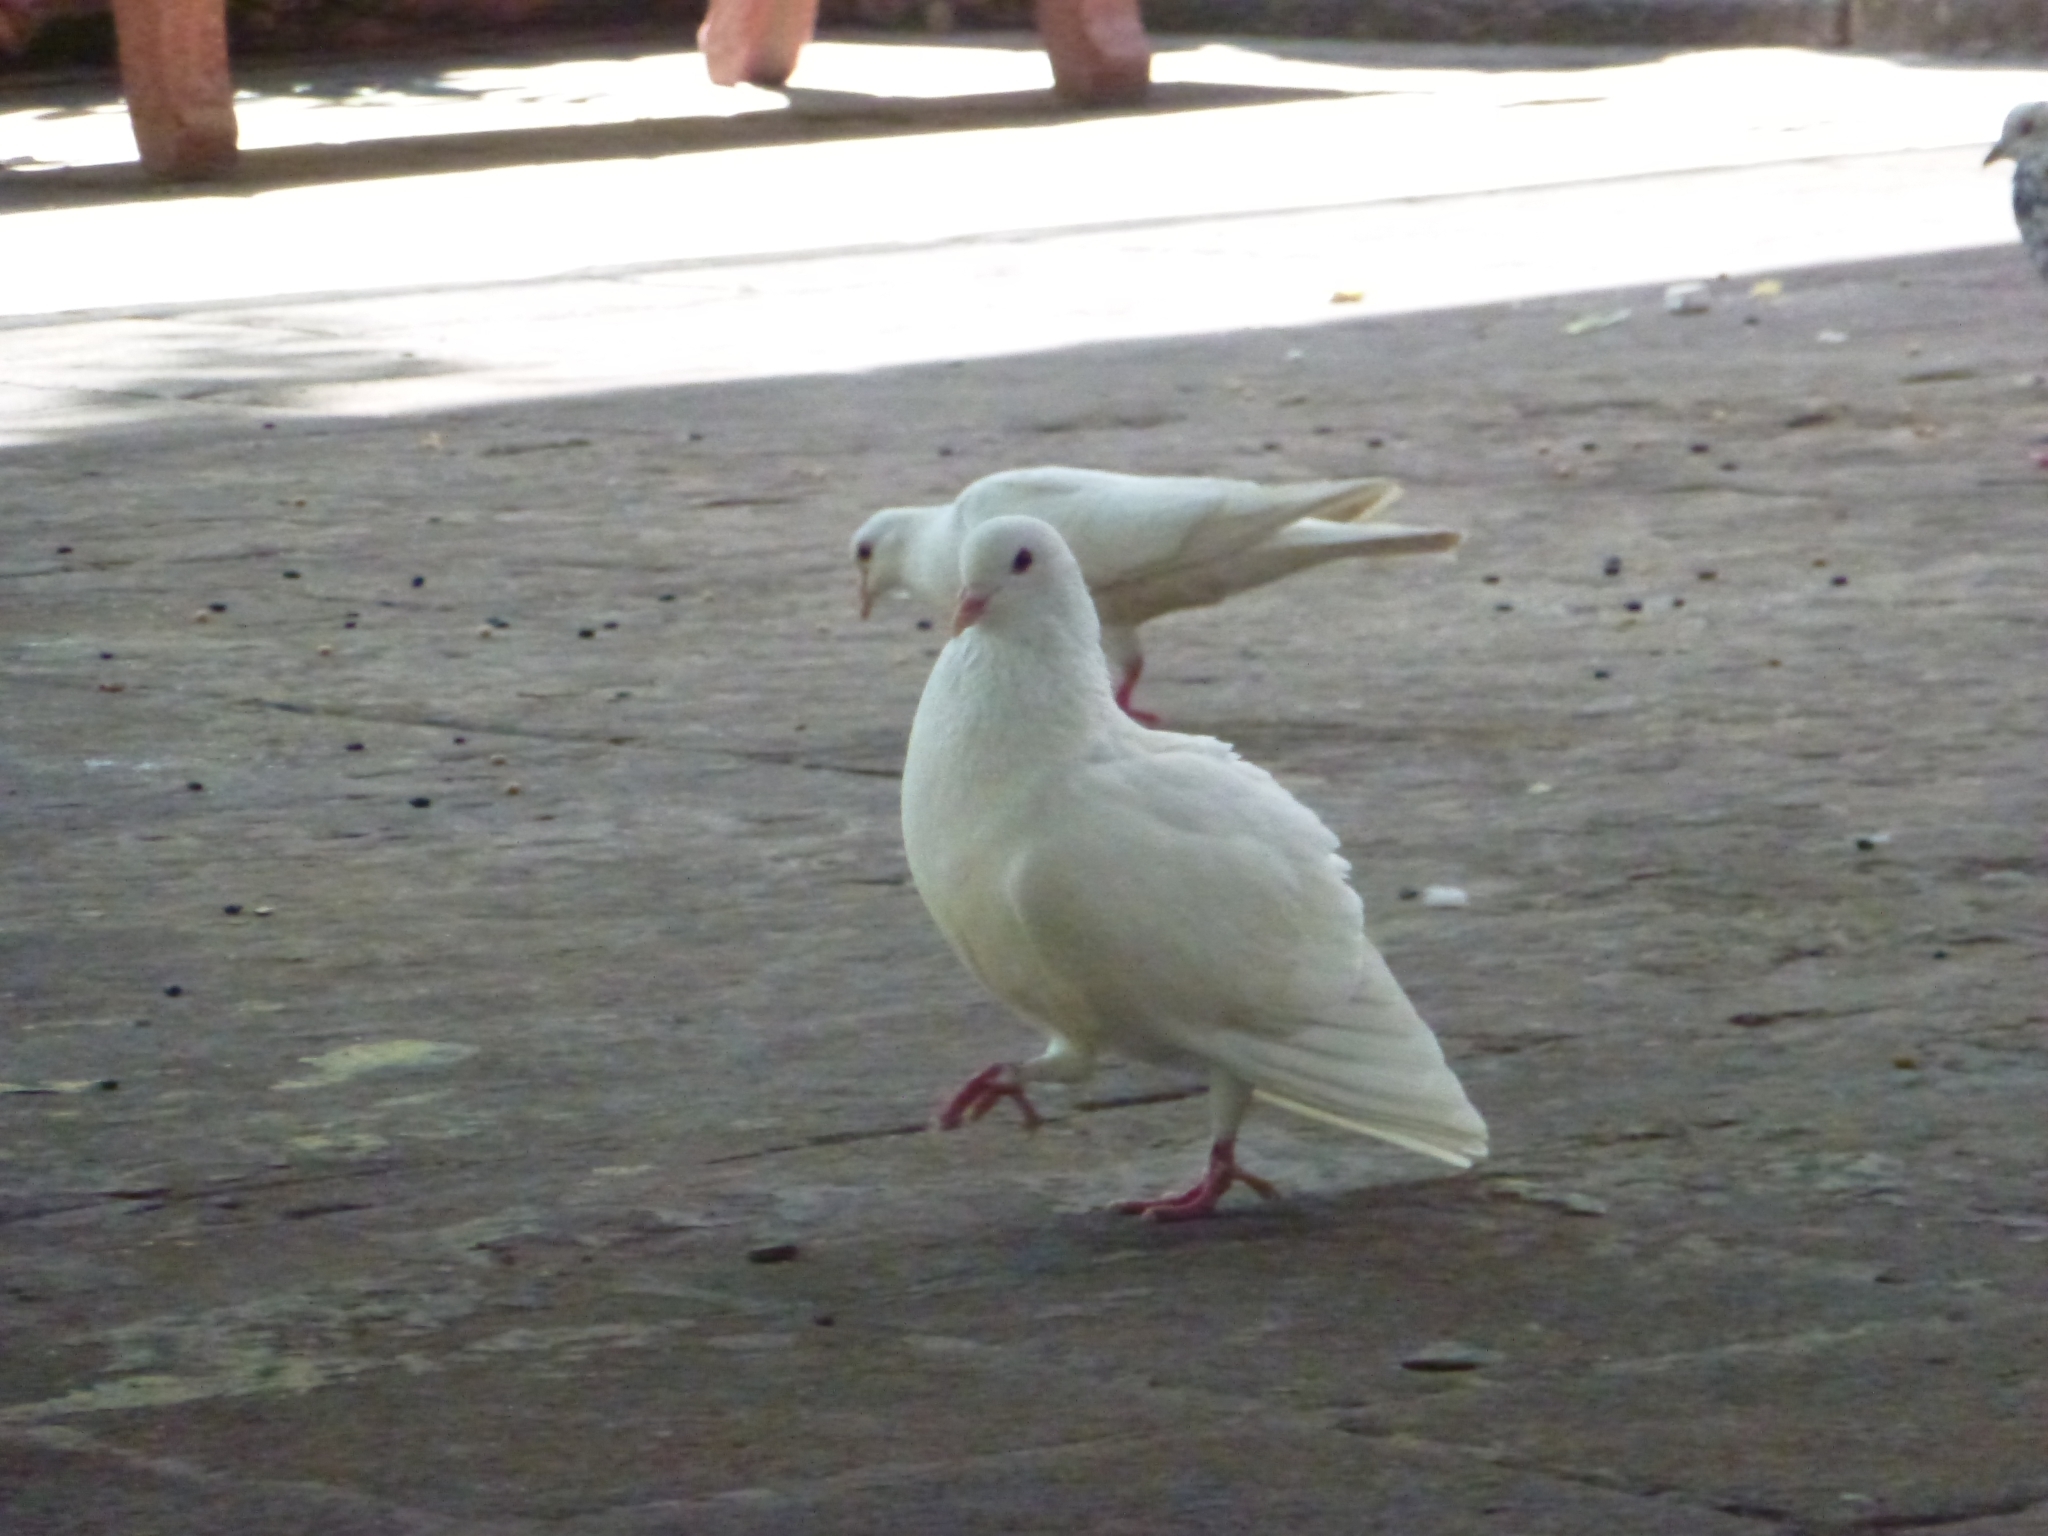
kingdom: Animalia
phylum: Chordata
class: Aves
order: Columbiformes
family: Columbidae
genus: Columba
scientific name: Columba livia
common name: Rock pigeon
